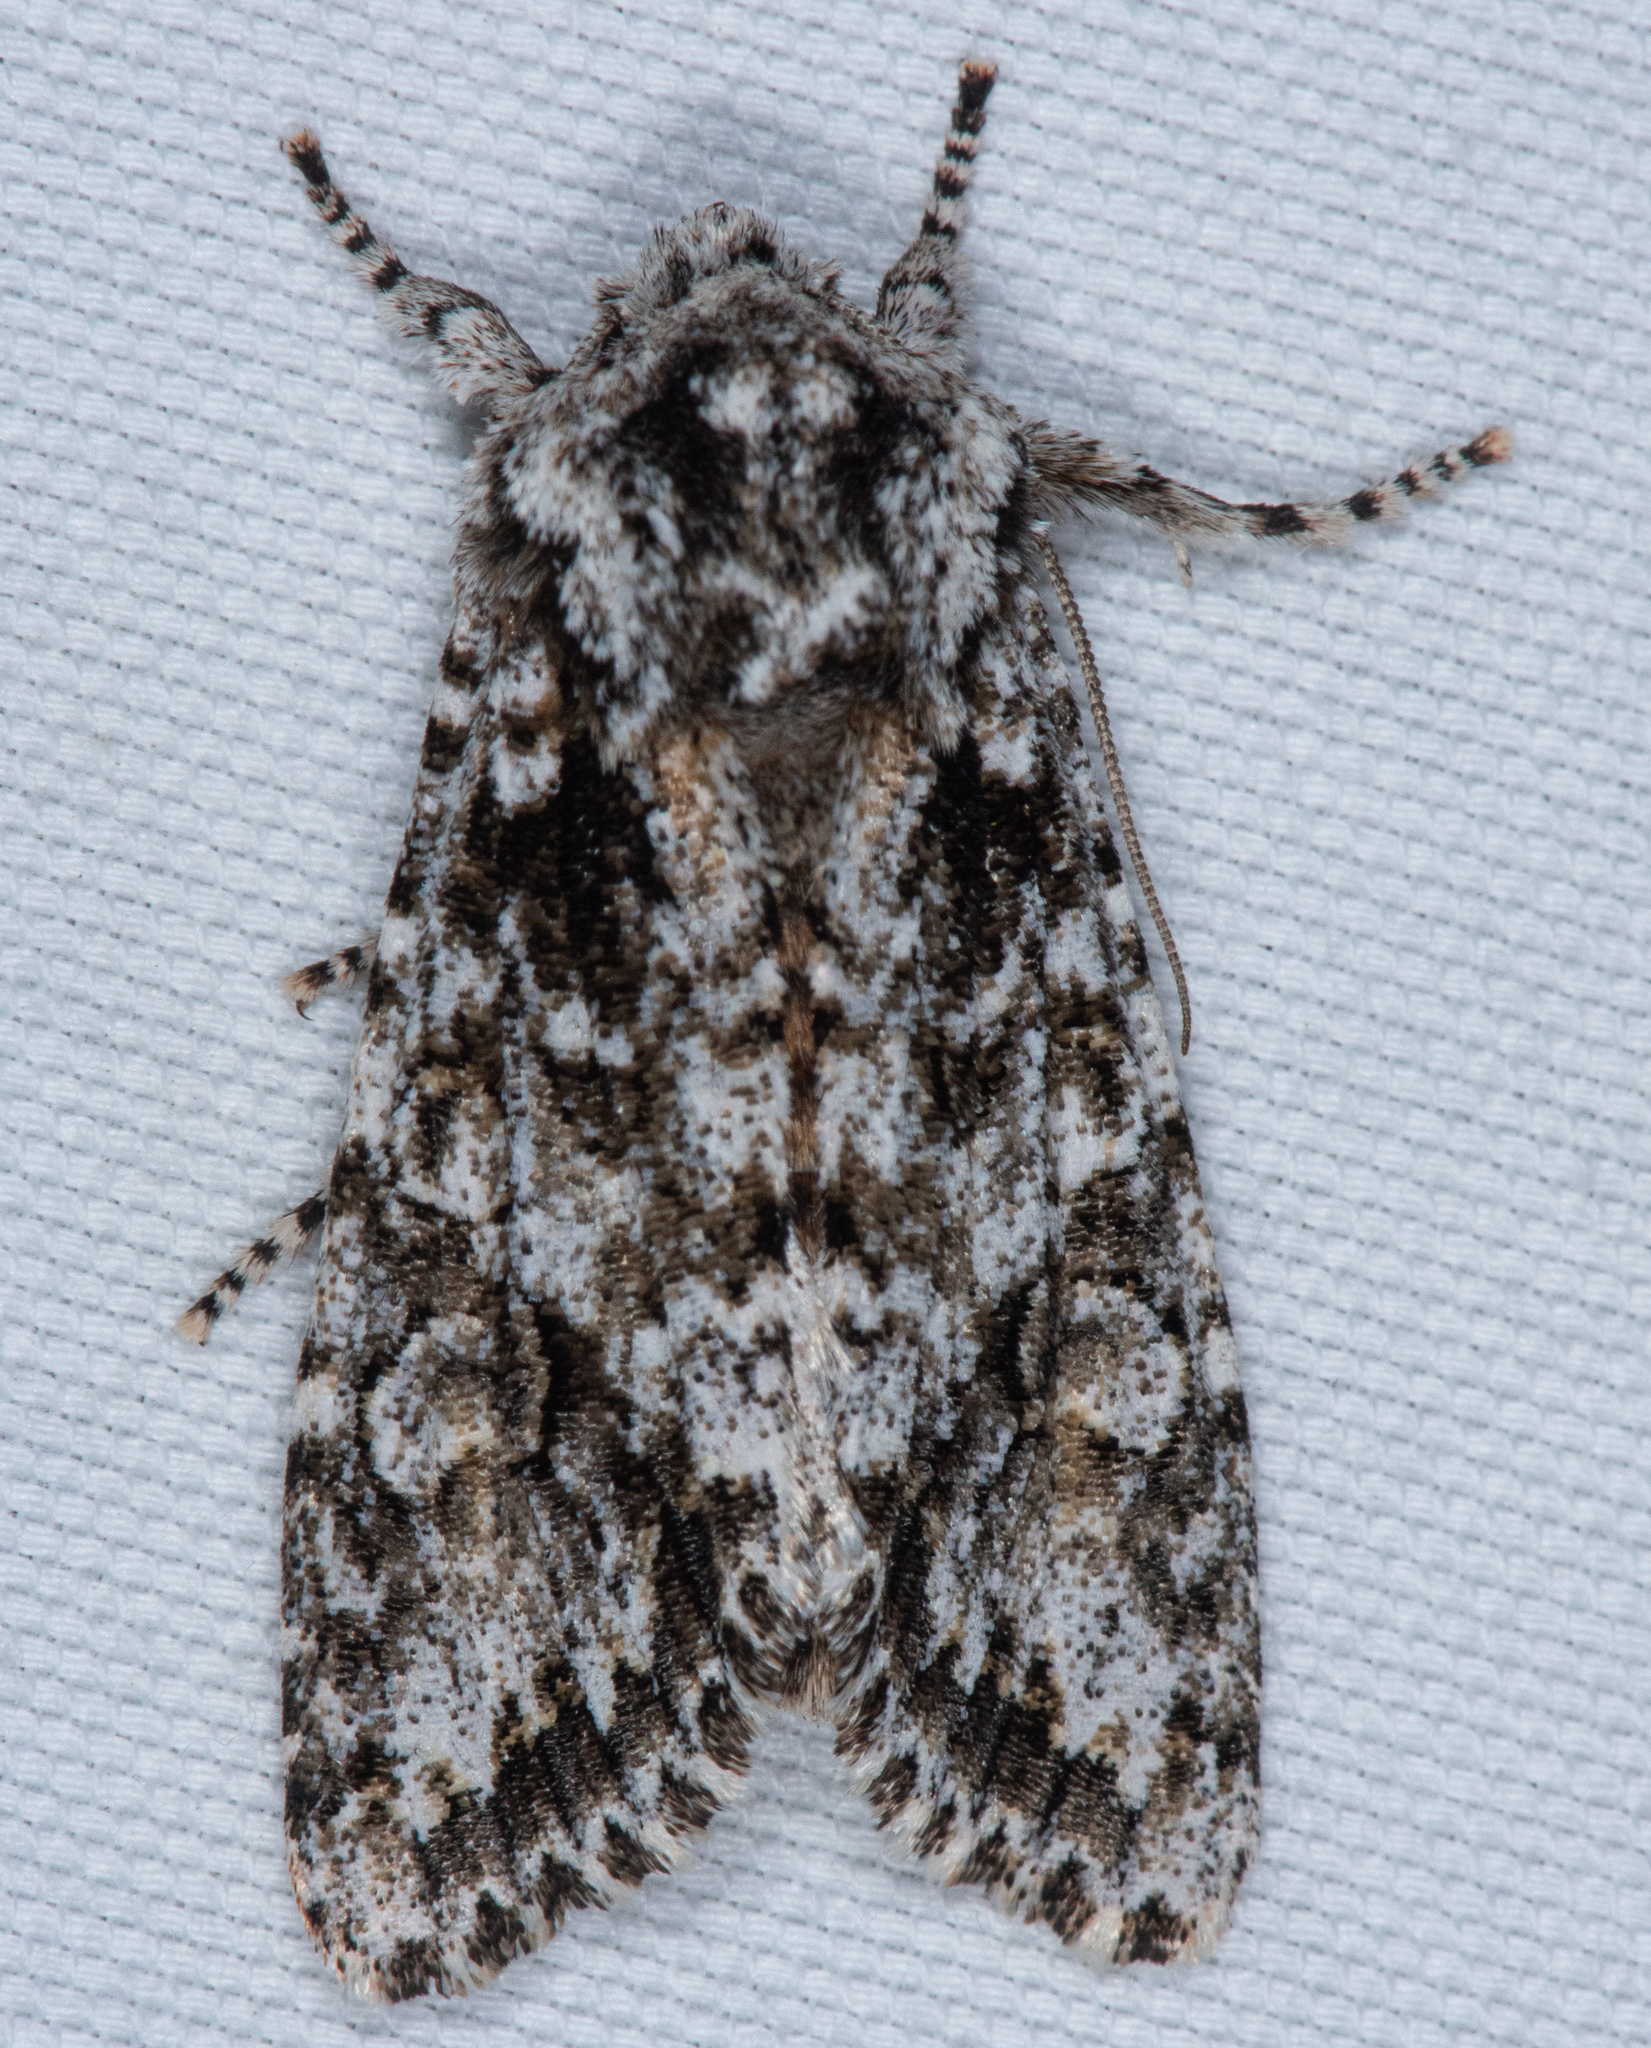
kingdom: Animalia
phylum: Arthropoda
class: Insecta
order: Lepidoptera
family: Noctuidae
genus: Egira
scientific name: Egira februalis
